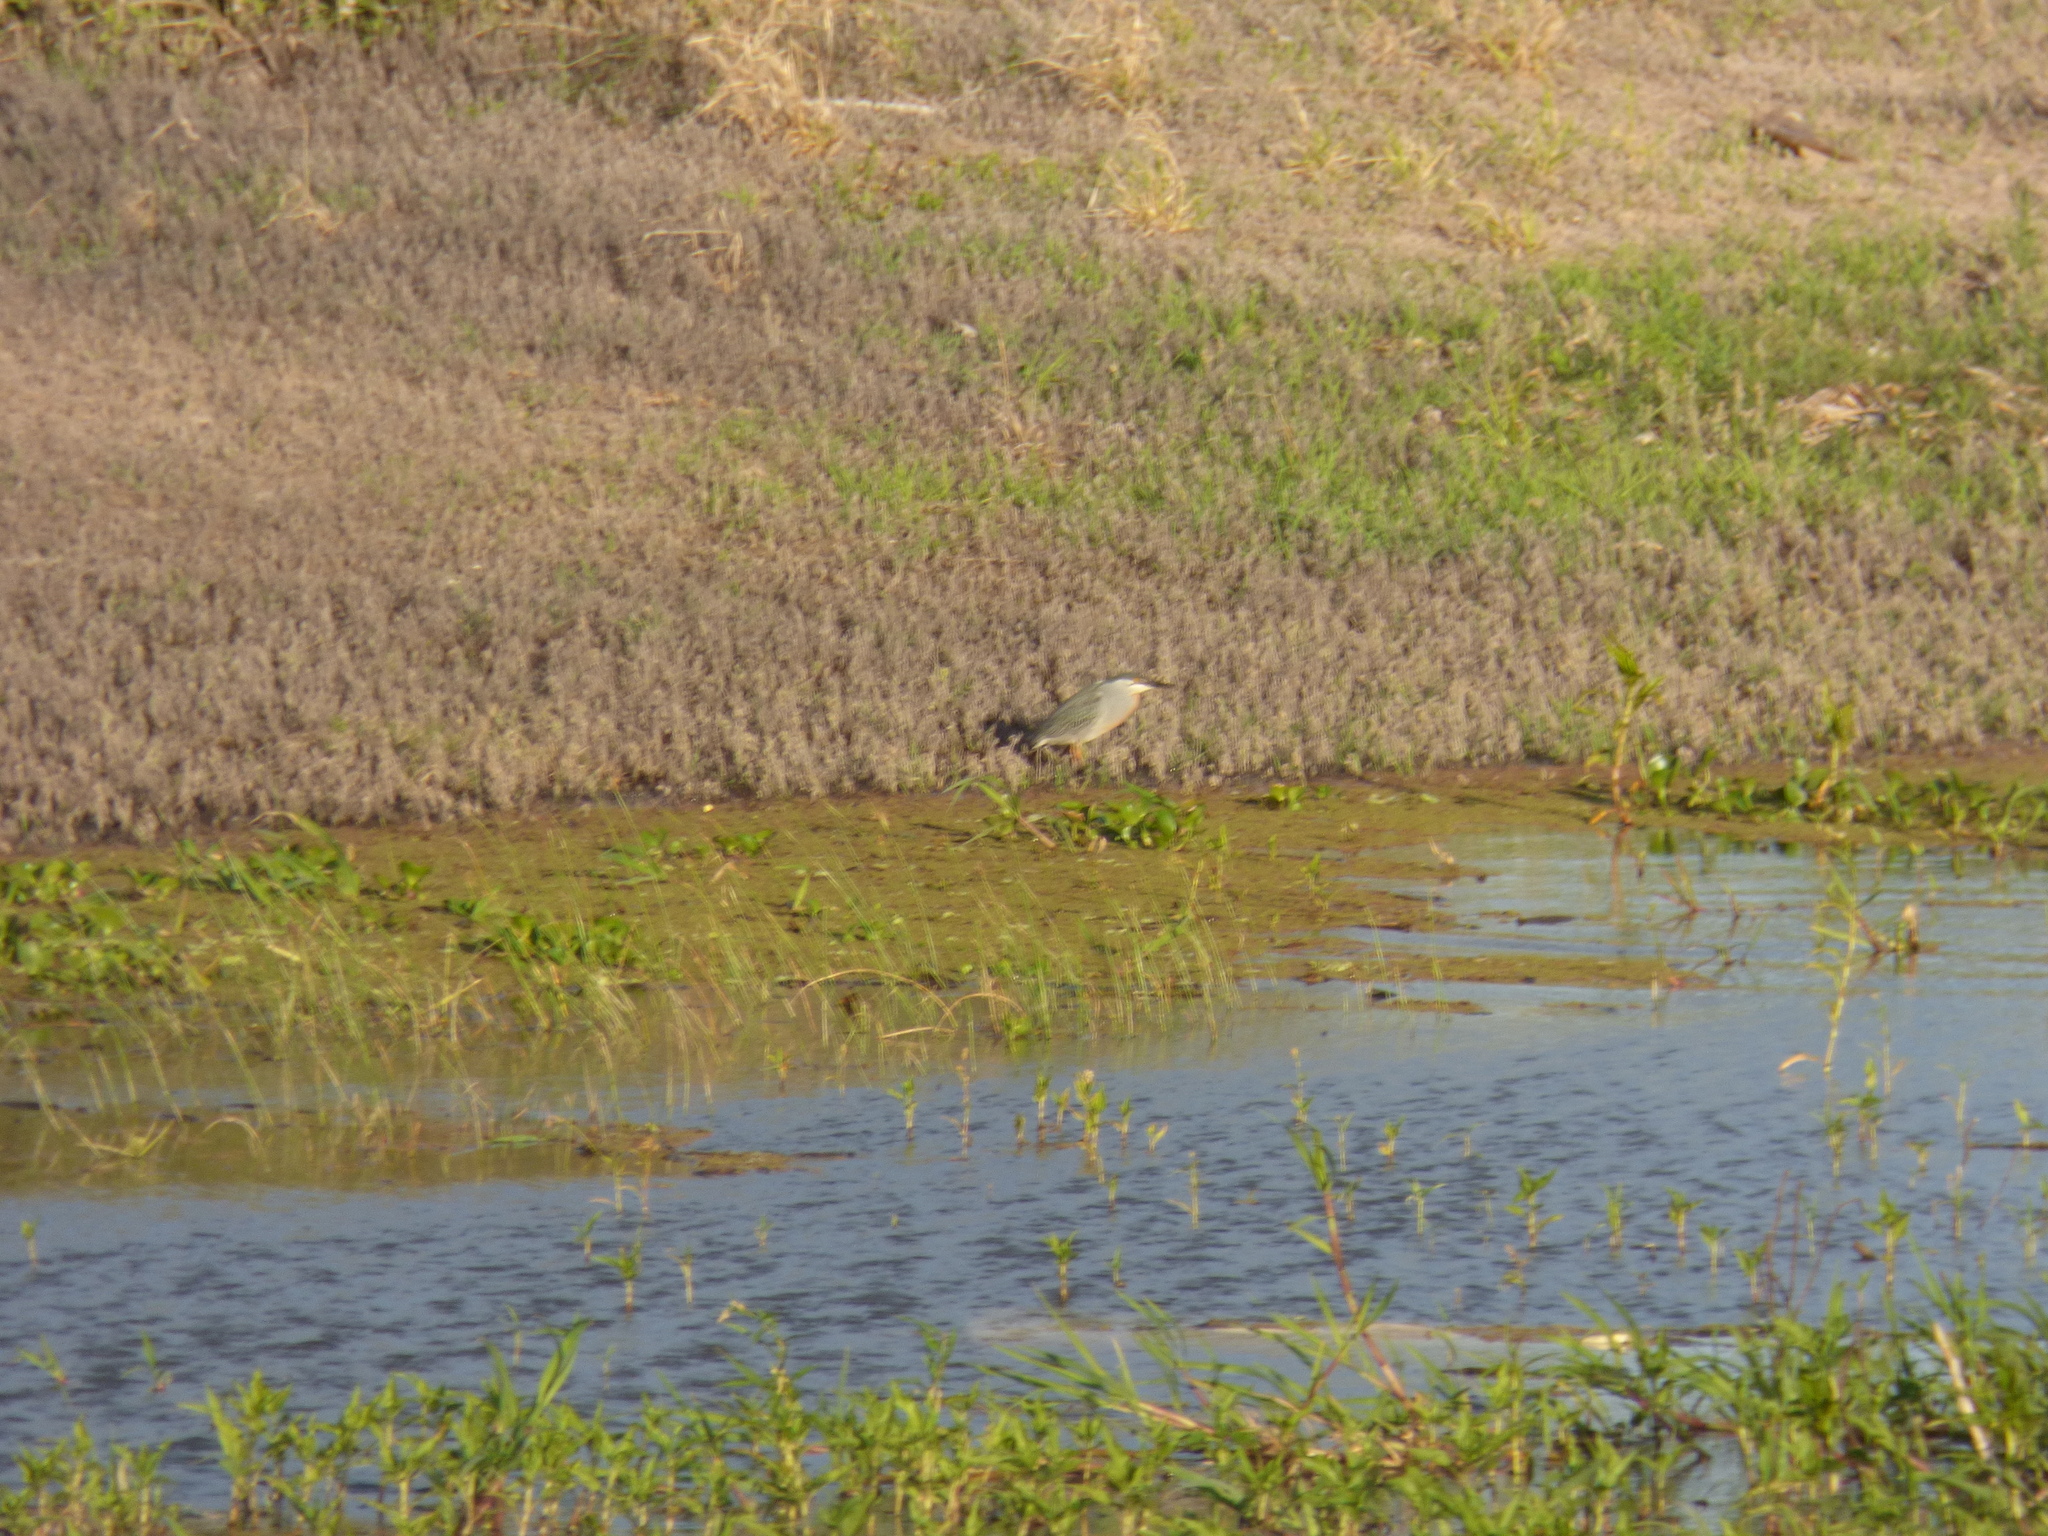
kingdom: Animalia
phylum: Chordata
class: Aves
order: Pelecaniformes
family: Ardeidae
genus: Butorides
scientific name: Butorides striata
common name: Striated heron
